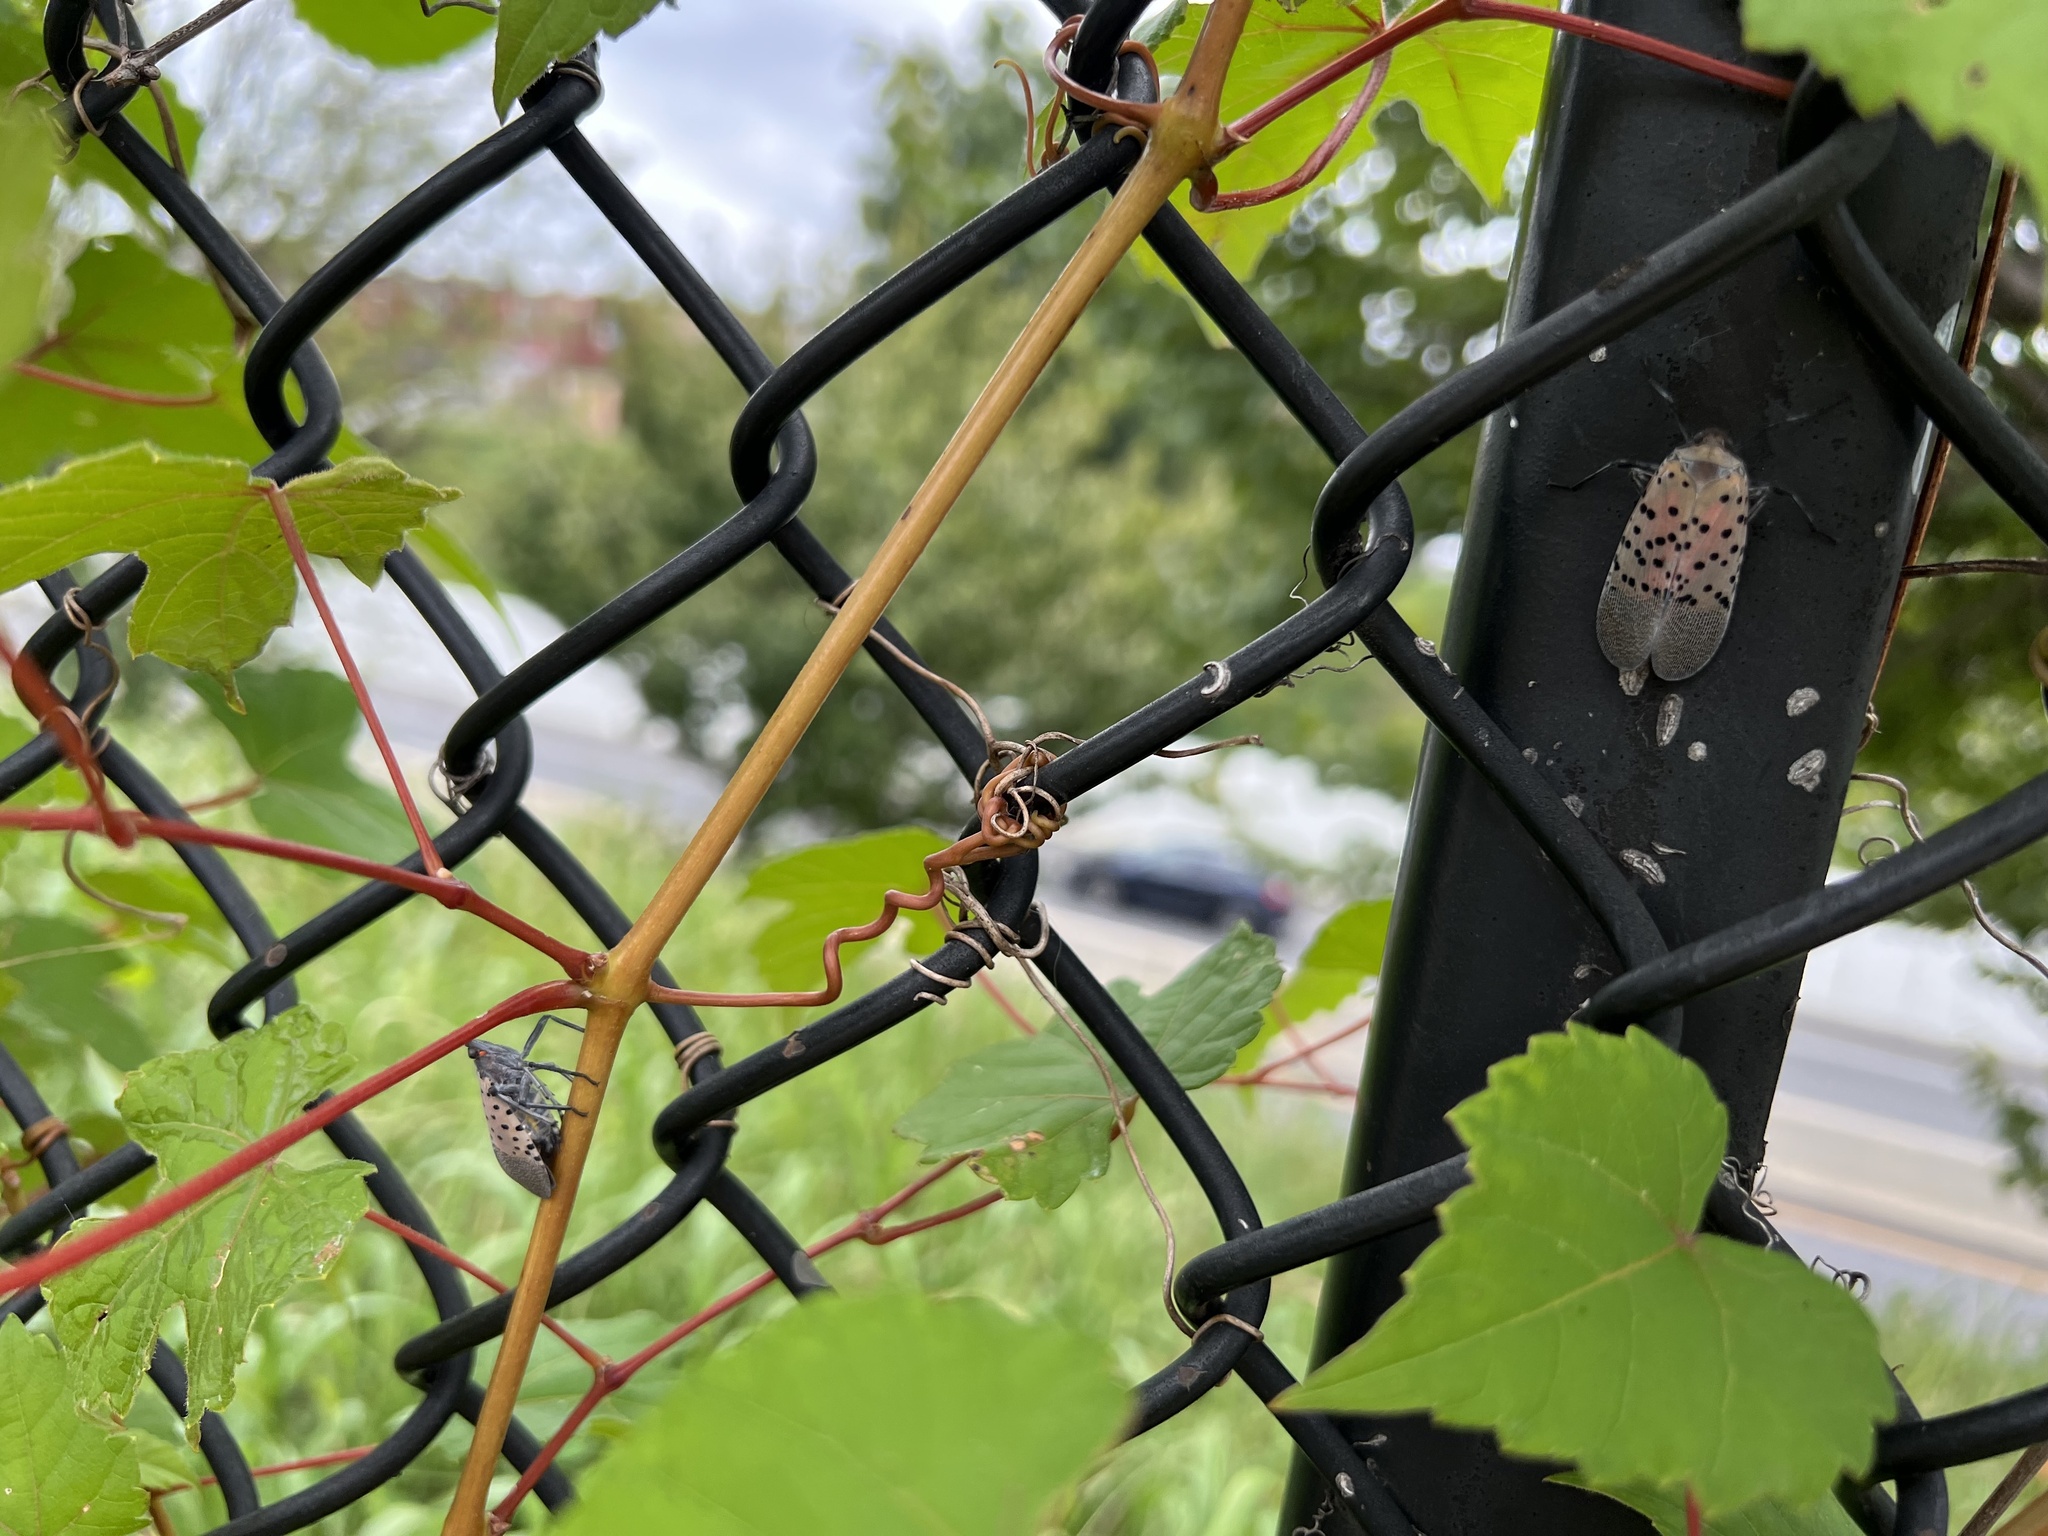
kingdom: Animalia
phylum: Arthropoda
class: Insecta
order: Hemiptera
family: Fulgoridae
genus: Lycorma
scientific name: Lycorma delicatula
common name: Spotted lanternfly
